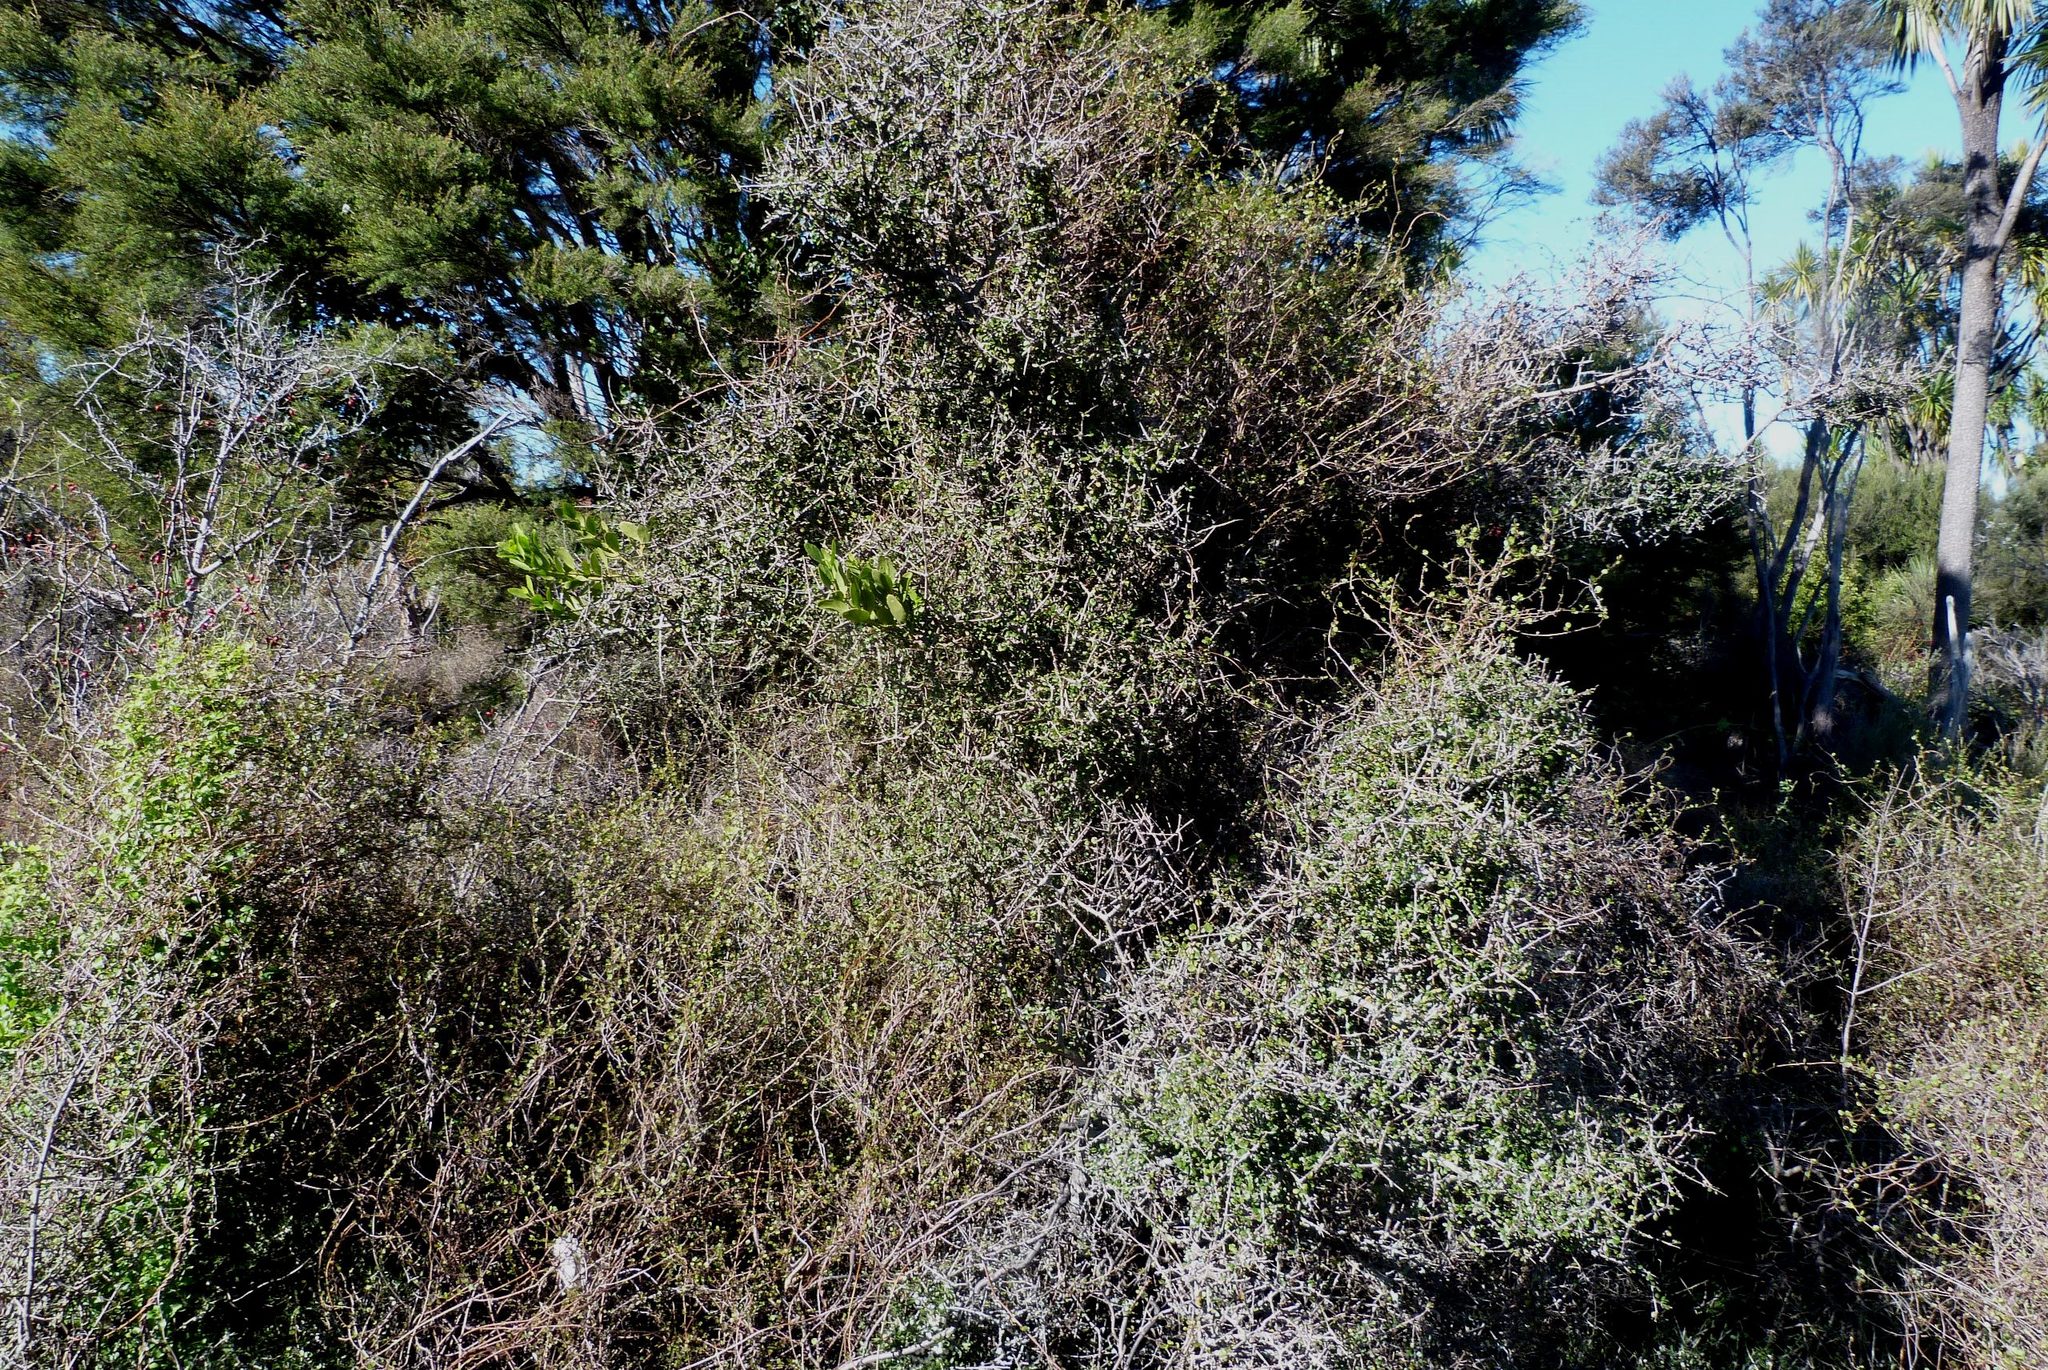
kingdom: Plantae
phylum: Tracheophyta
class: Magnoliopsida
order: Gentianales
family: Rubiaceae
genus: Coprosma
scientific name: Coprosma crassifolia
